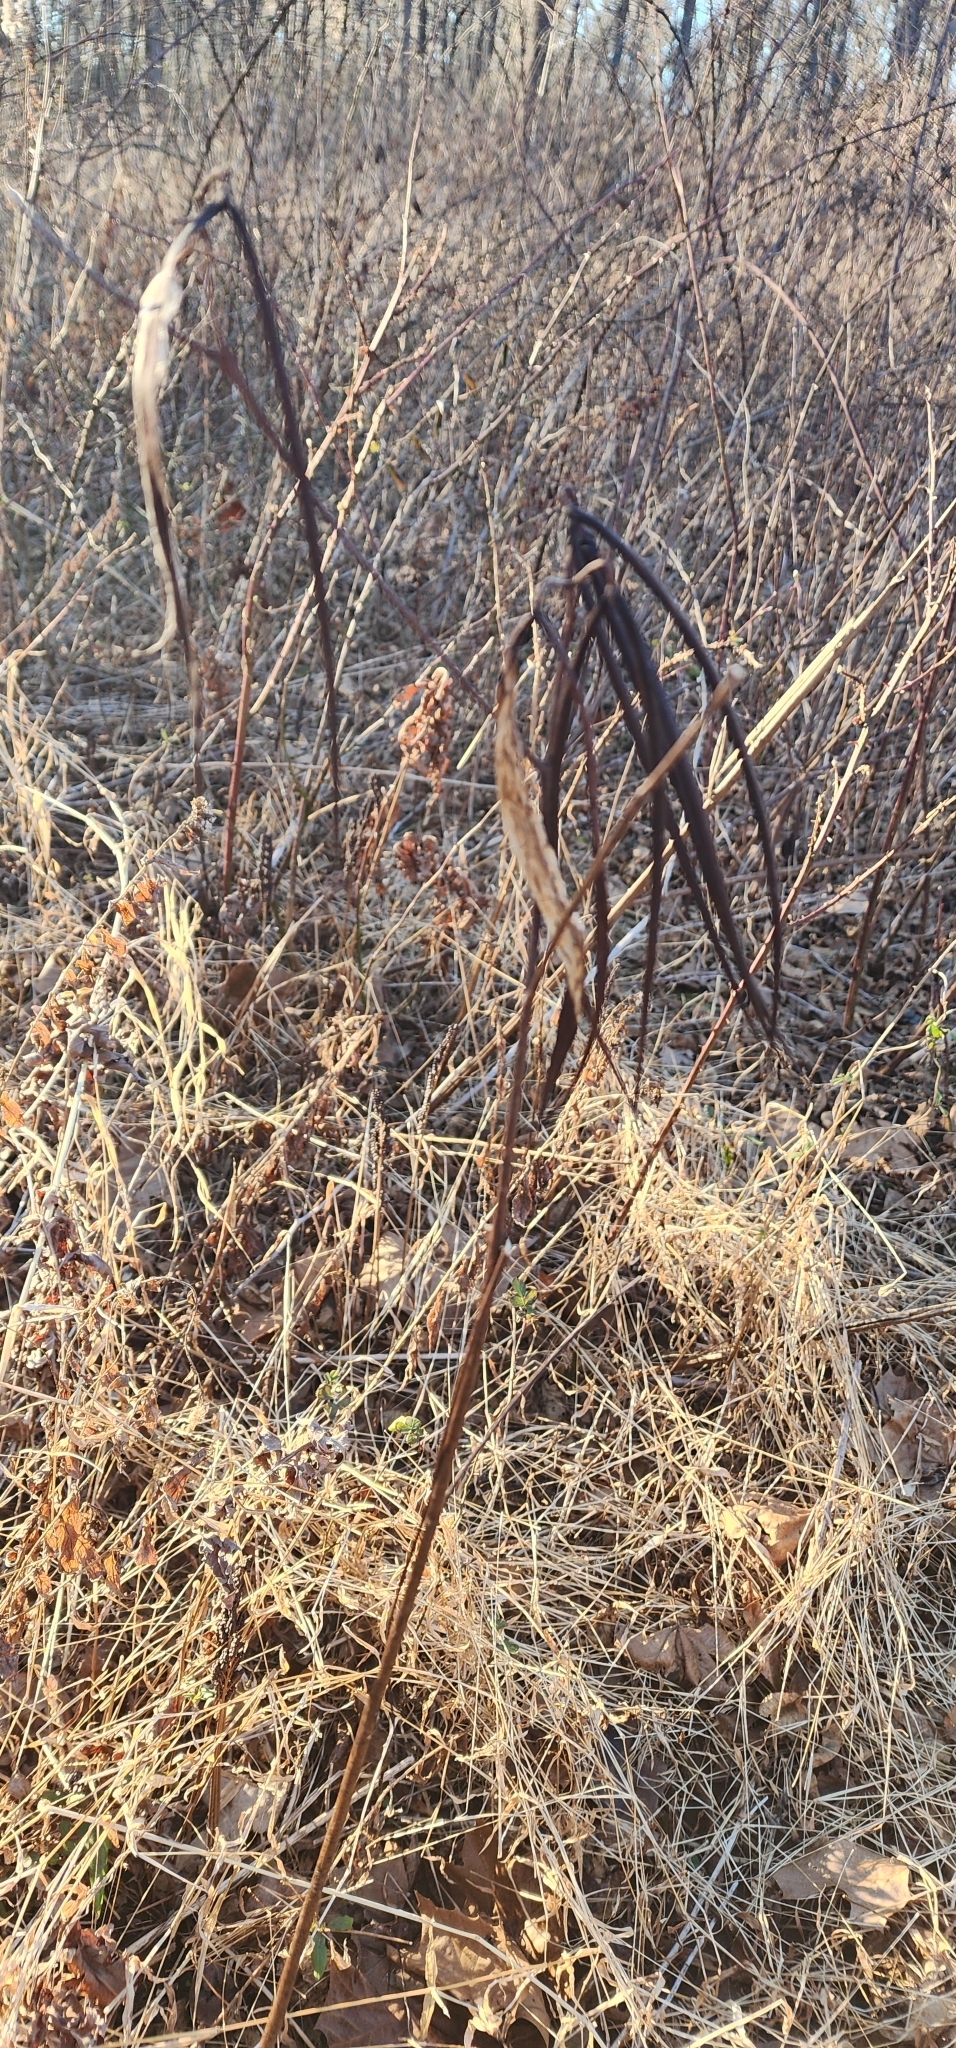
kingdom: Plantae
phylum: Tracheophyta
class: Magnoliopsida
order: Gentianales
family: Apocynaceae
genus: Apocynum
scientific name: Apocynum cannabinum
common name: Hemp dogbane
